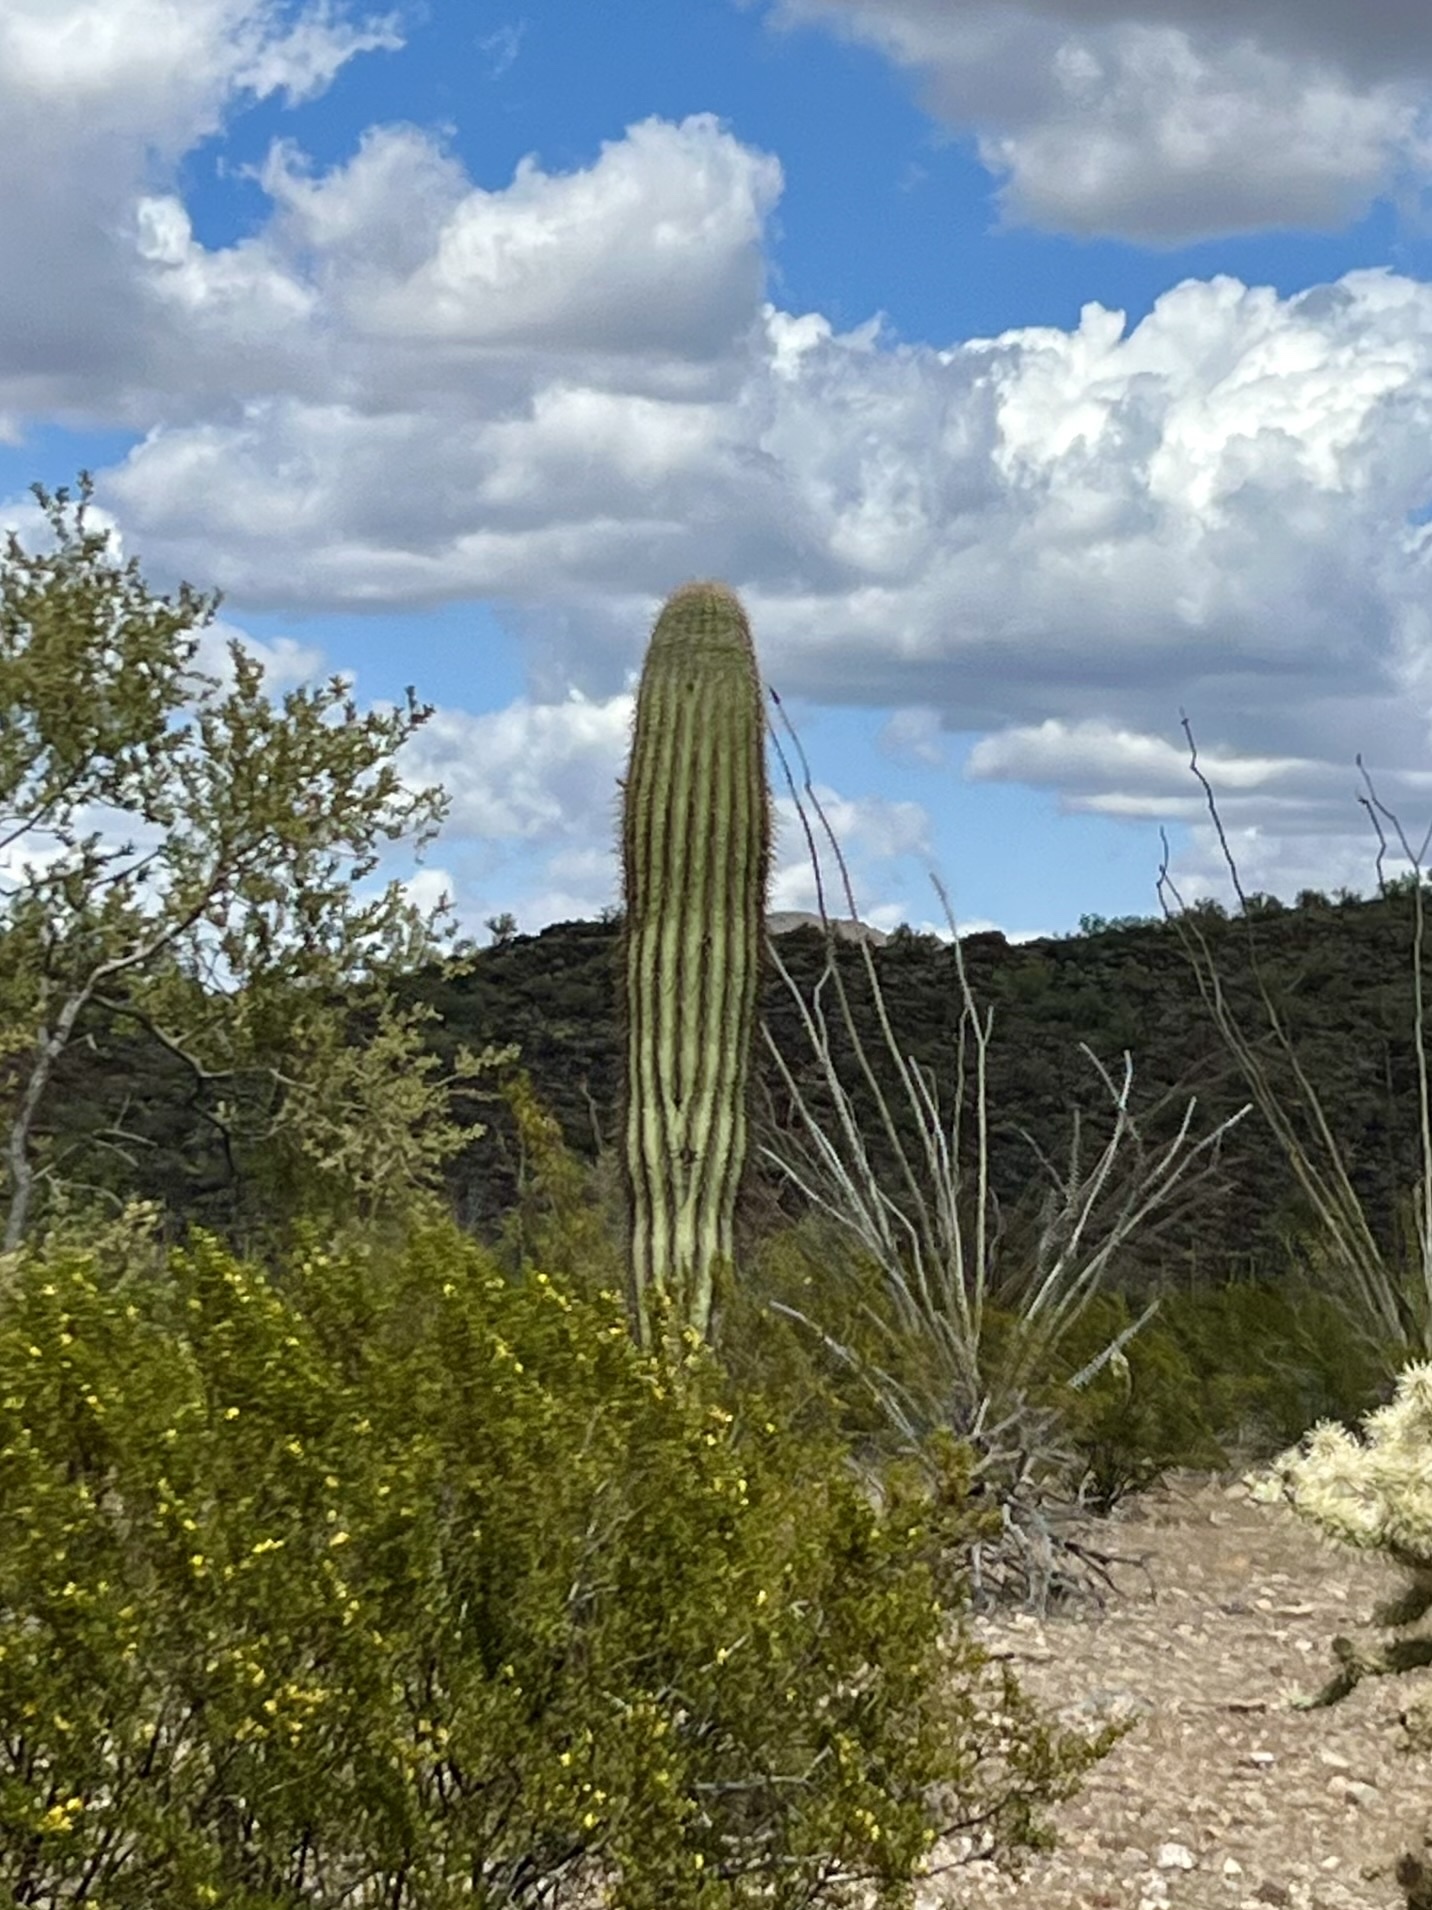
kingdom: Plantae
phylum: Tracheophyta
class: Magnoliopsida
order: Caryophyllales
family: Cactaceae
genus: Carnegiea
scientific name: Carnegiea gigantea
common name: Saguaro
